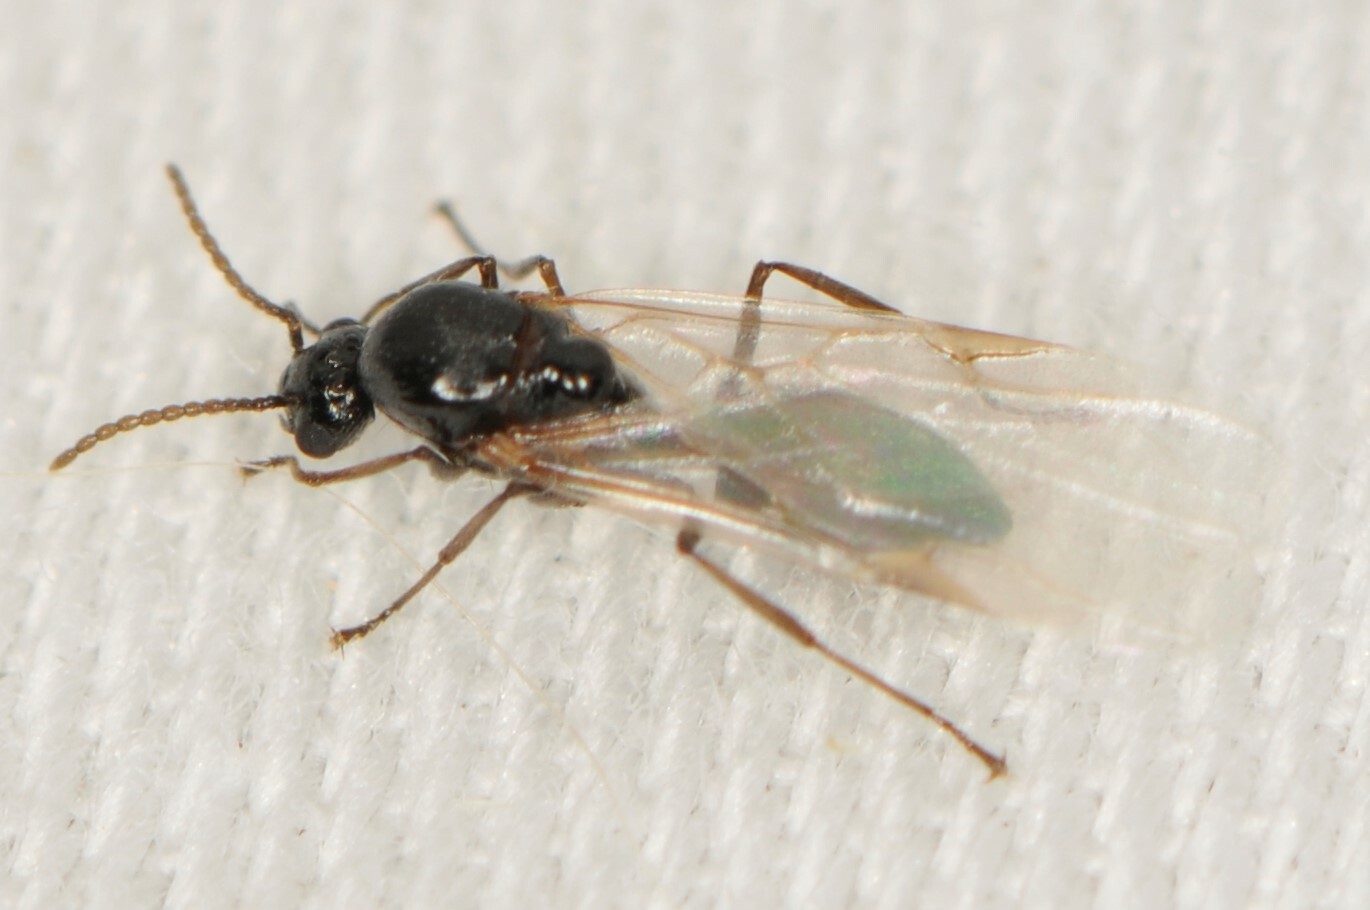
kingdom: Animalia
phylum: Arthropoda
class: Insecta
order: Hymenoptera
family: Formicidae
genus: Crematogaster
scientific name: Crematogaster
